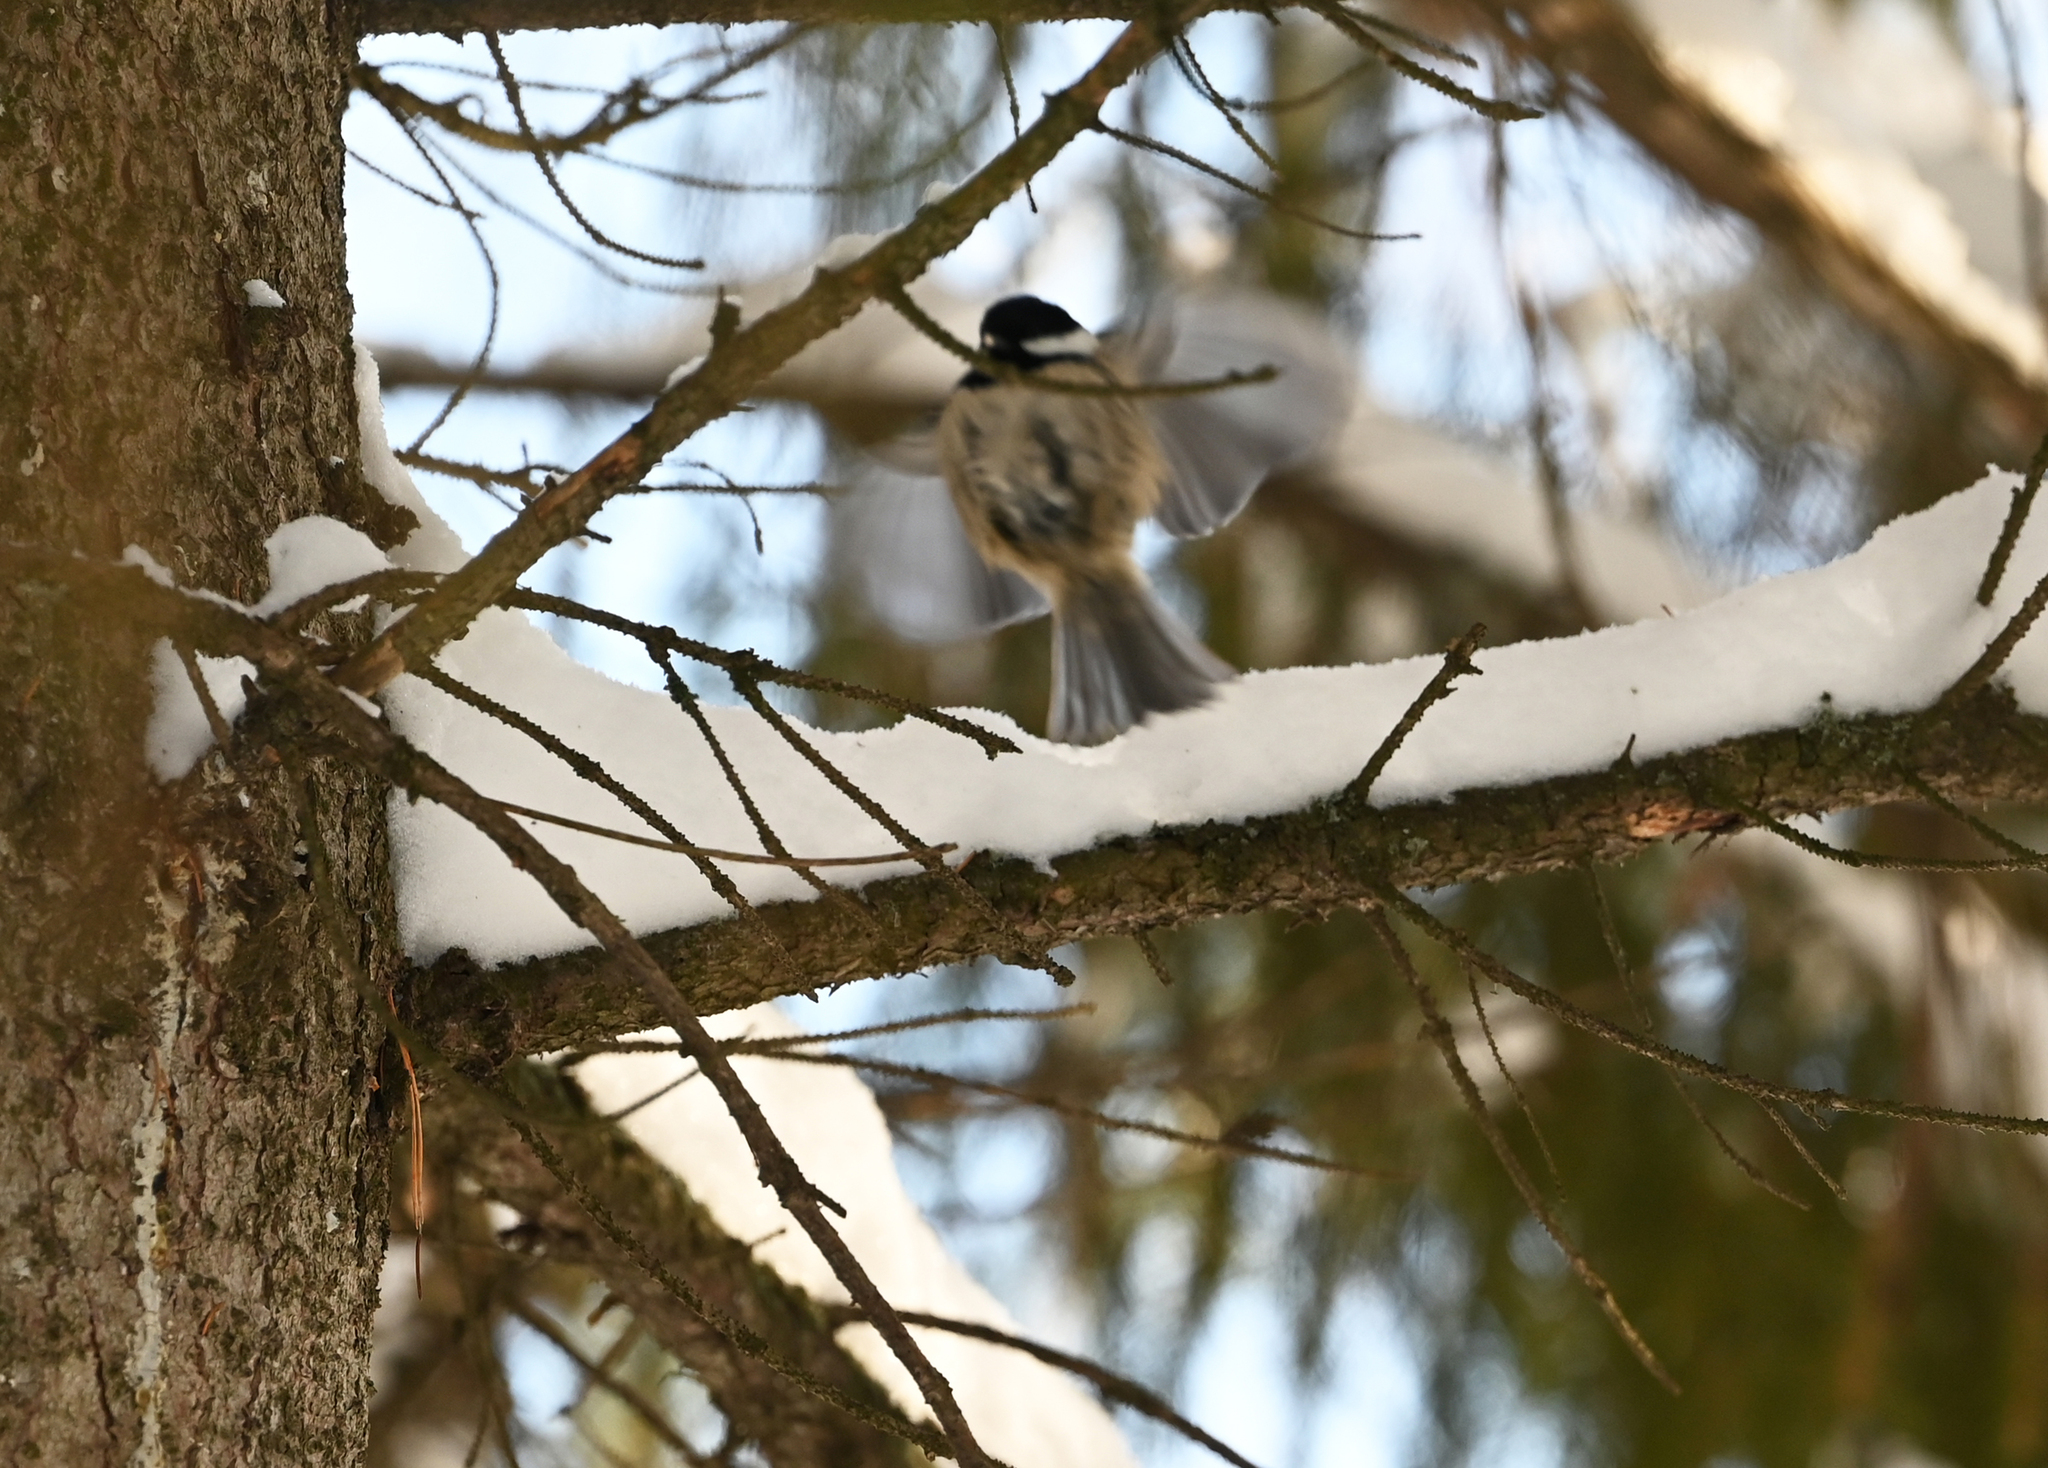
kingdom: Animalia
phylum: Chordata
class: Aves
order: Passeriformes
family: Paridae
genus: Periparus
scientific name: Periparus ater
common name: Coal tit
